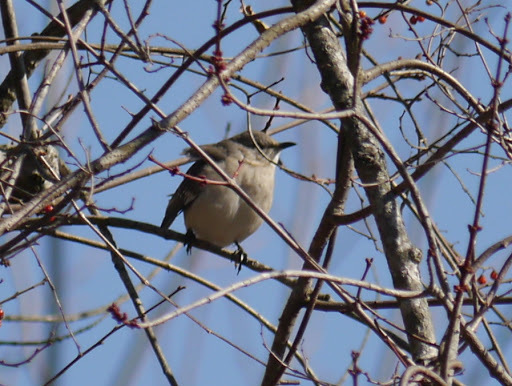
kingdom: Animalia
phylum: Chordata
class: Aves
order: Passeriformes
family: Mimidae
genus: Mimus
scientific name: Mimus polyglottos
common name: Northern mockingbird
